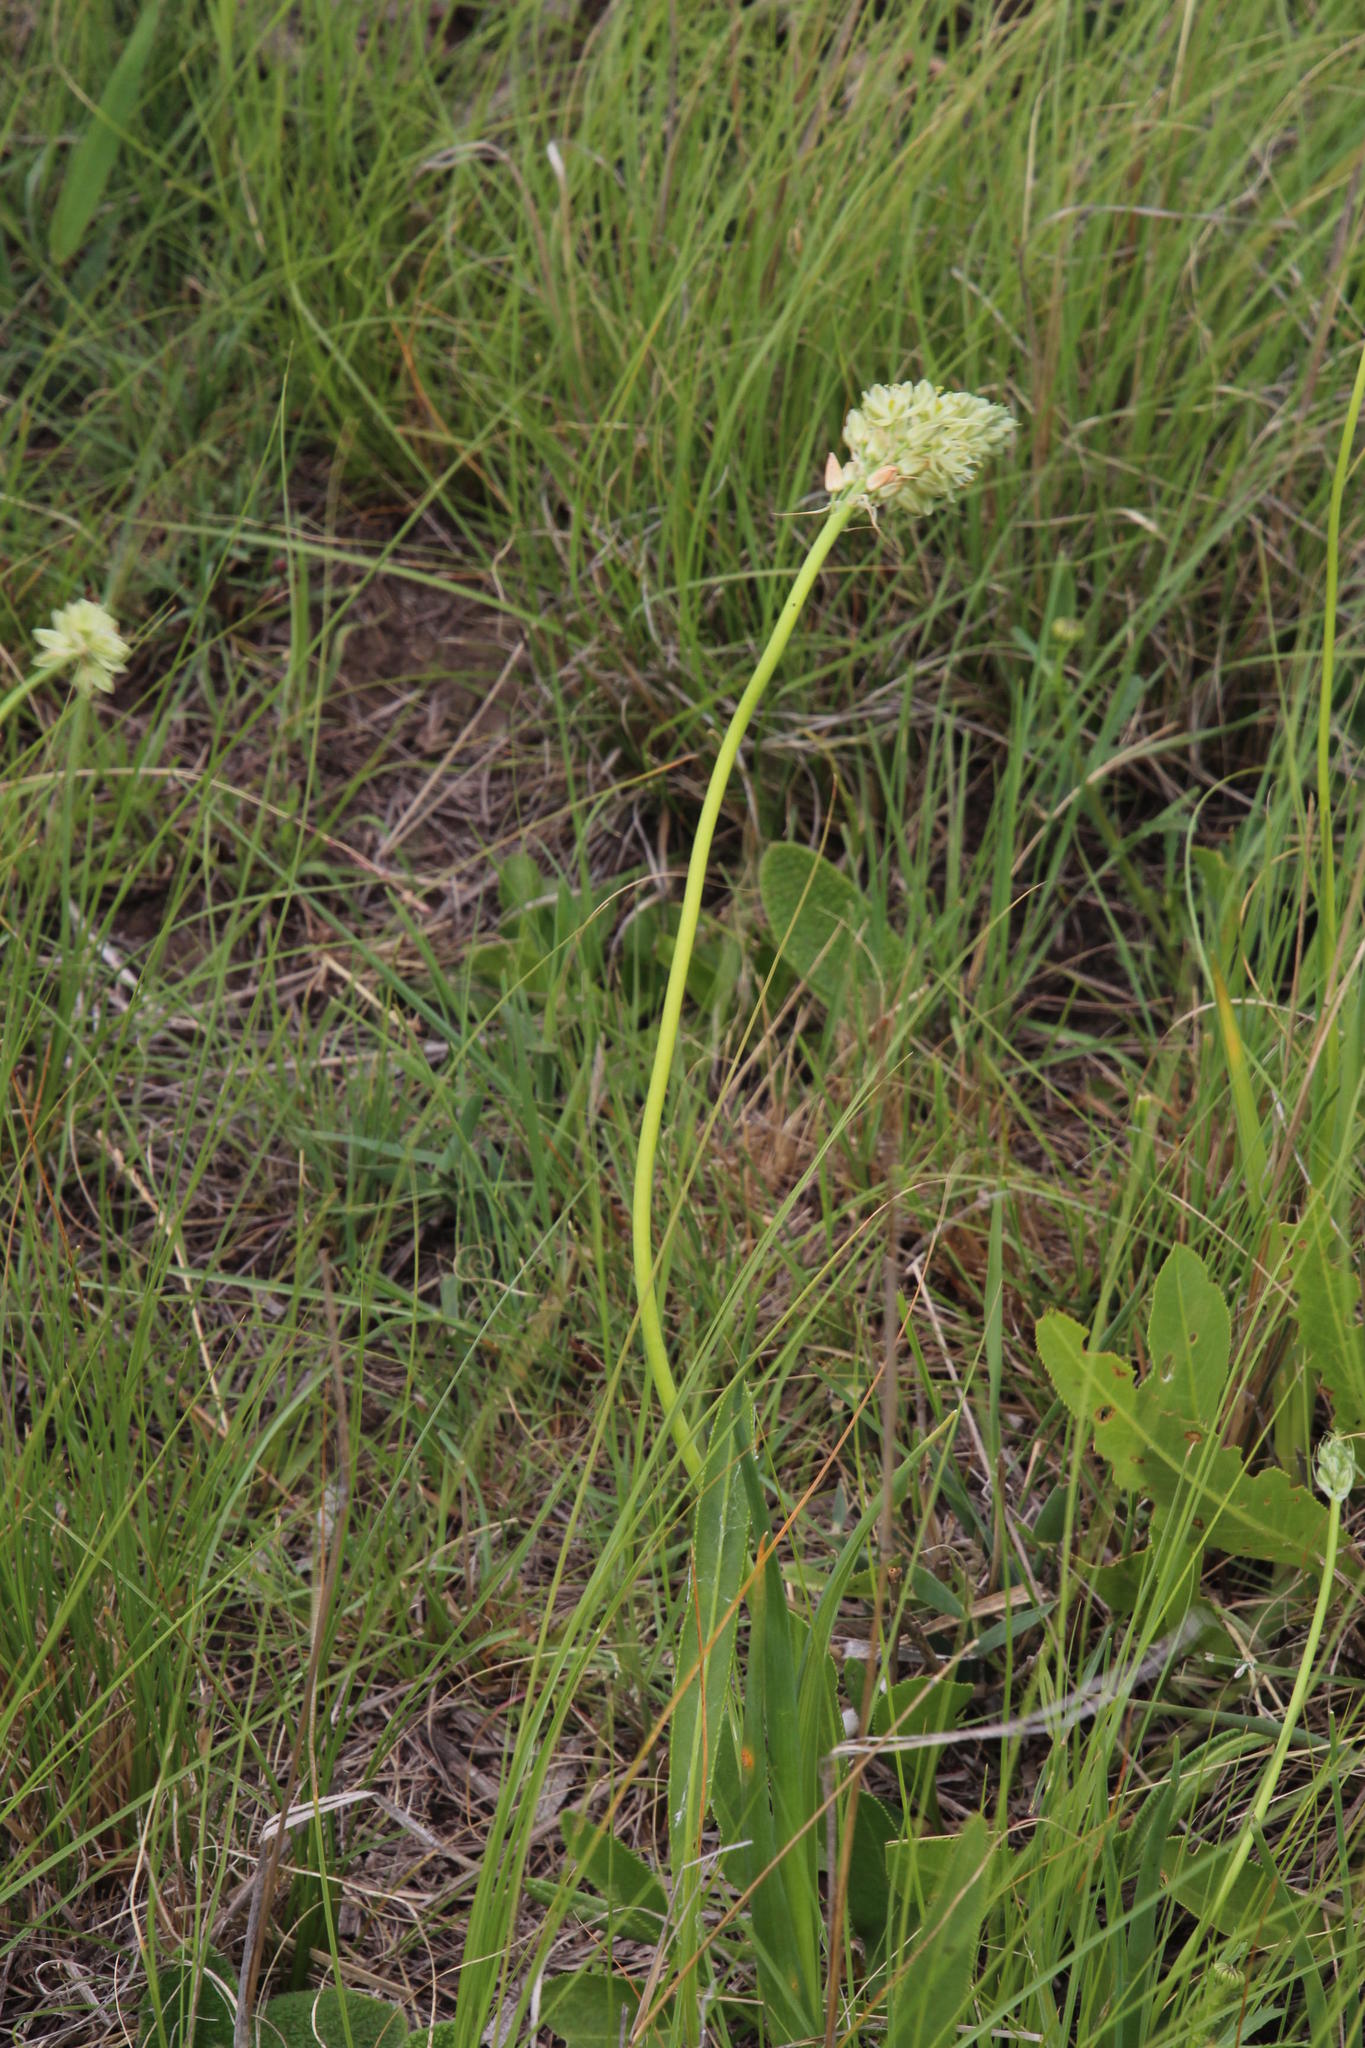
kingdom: Plantae
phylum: Tracheophyta
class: Liliopsida
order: Asparagales
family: Asparagaceae
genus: Albuca
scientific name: Albuca virens
